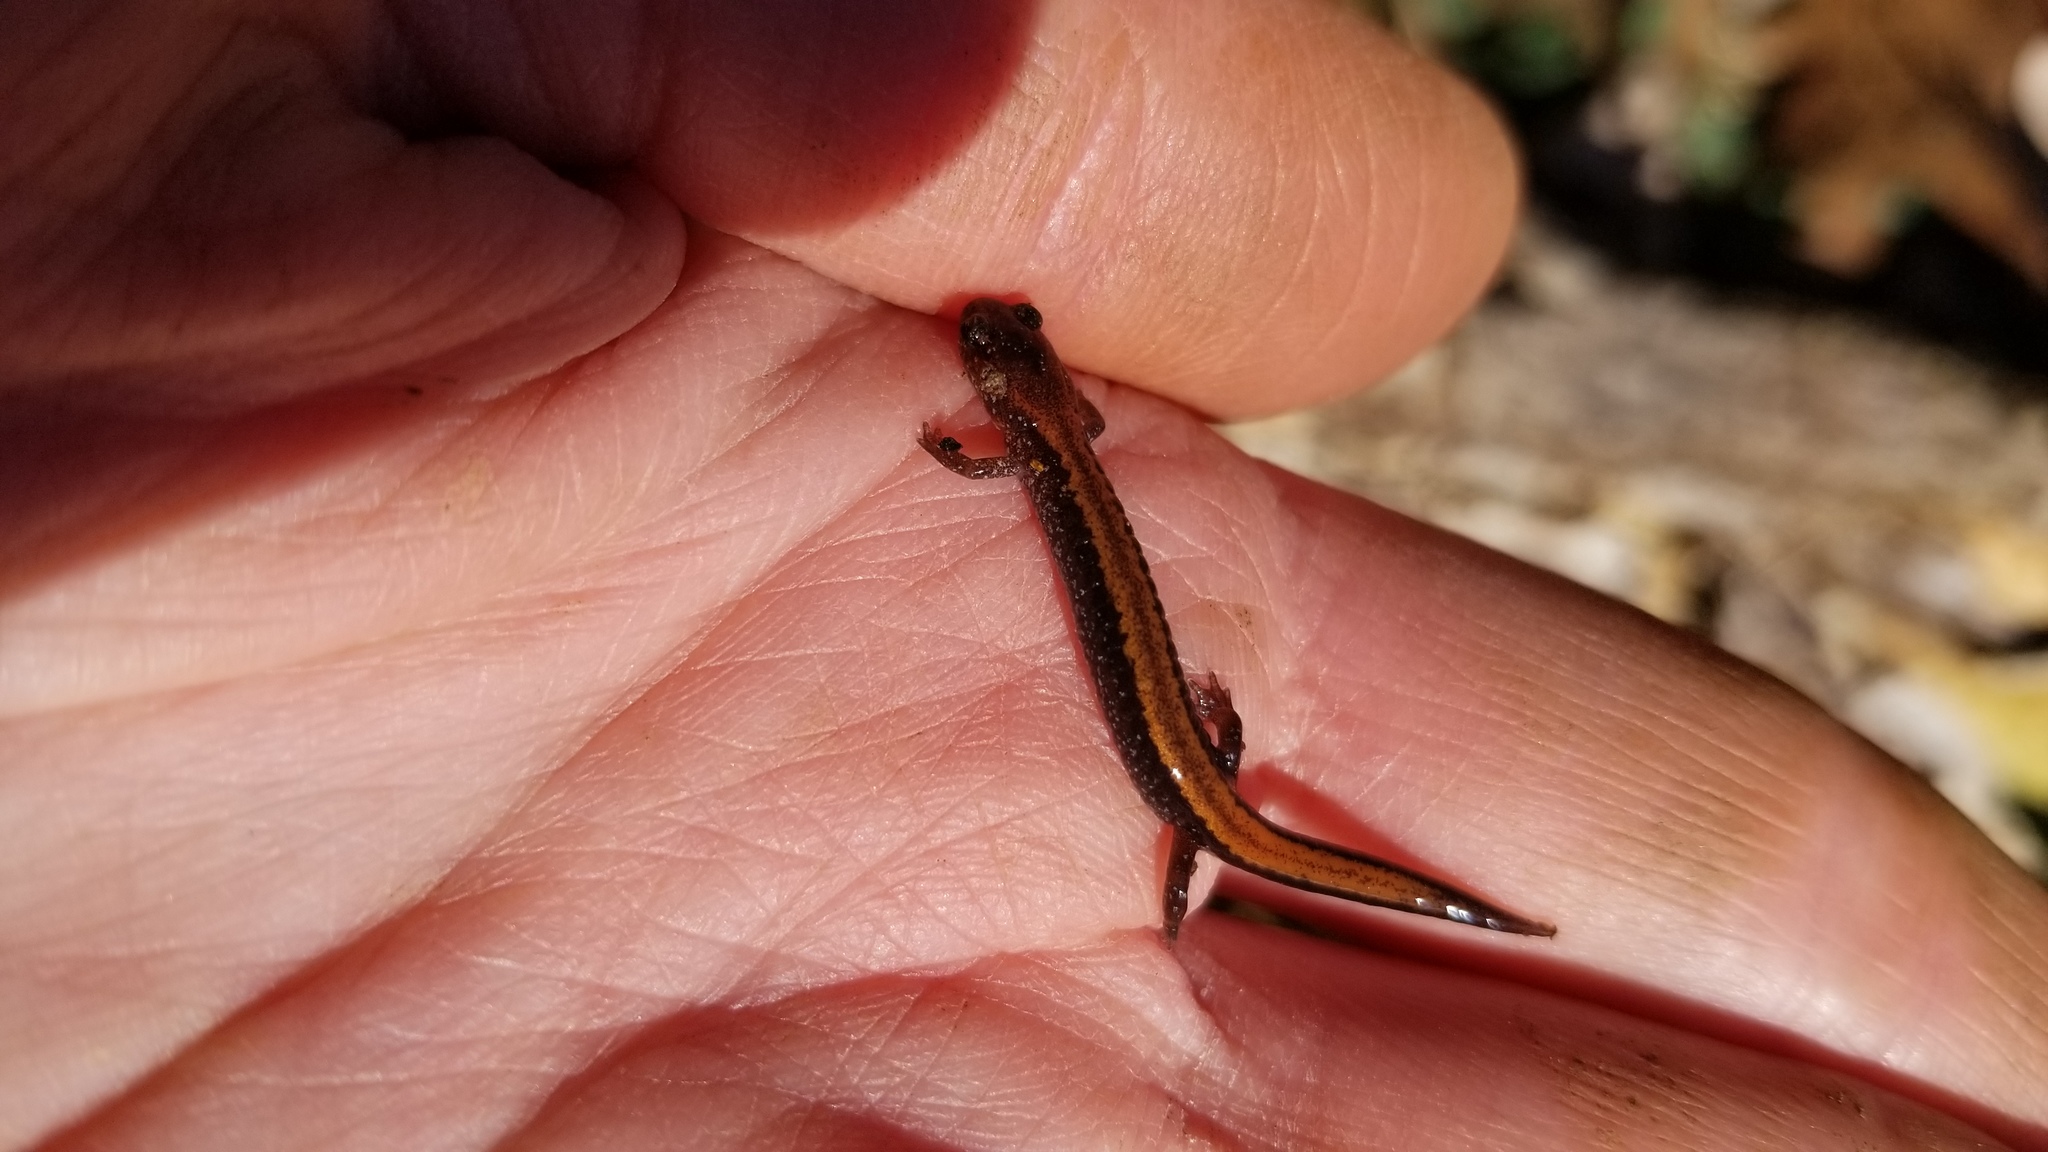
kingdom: Animalia
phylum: Chordata
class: Amphibia
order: Caudata
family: Plethodontidae
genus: Plethodon
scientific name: Plethodon cinereus
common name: Redback salamander
